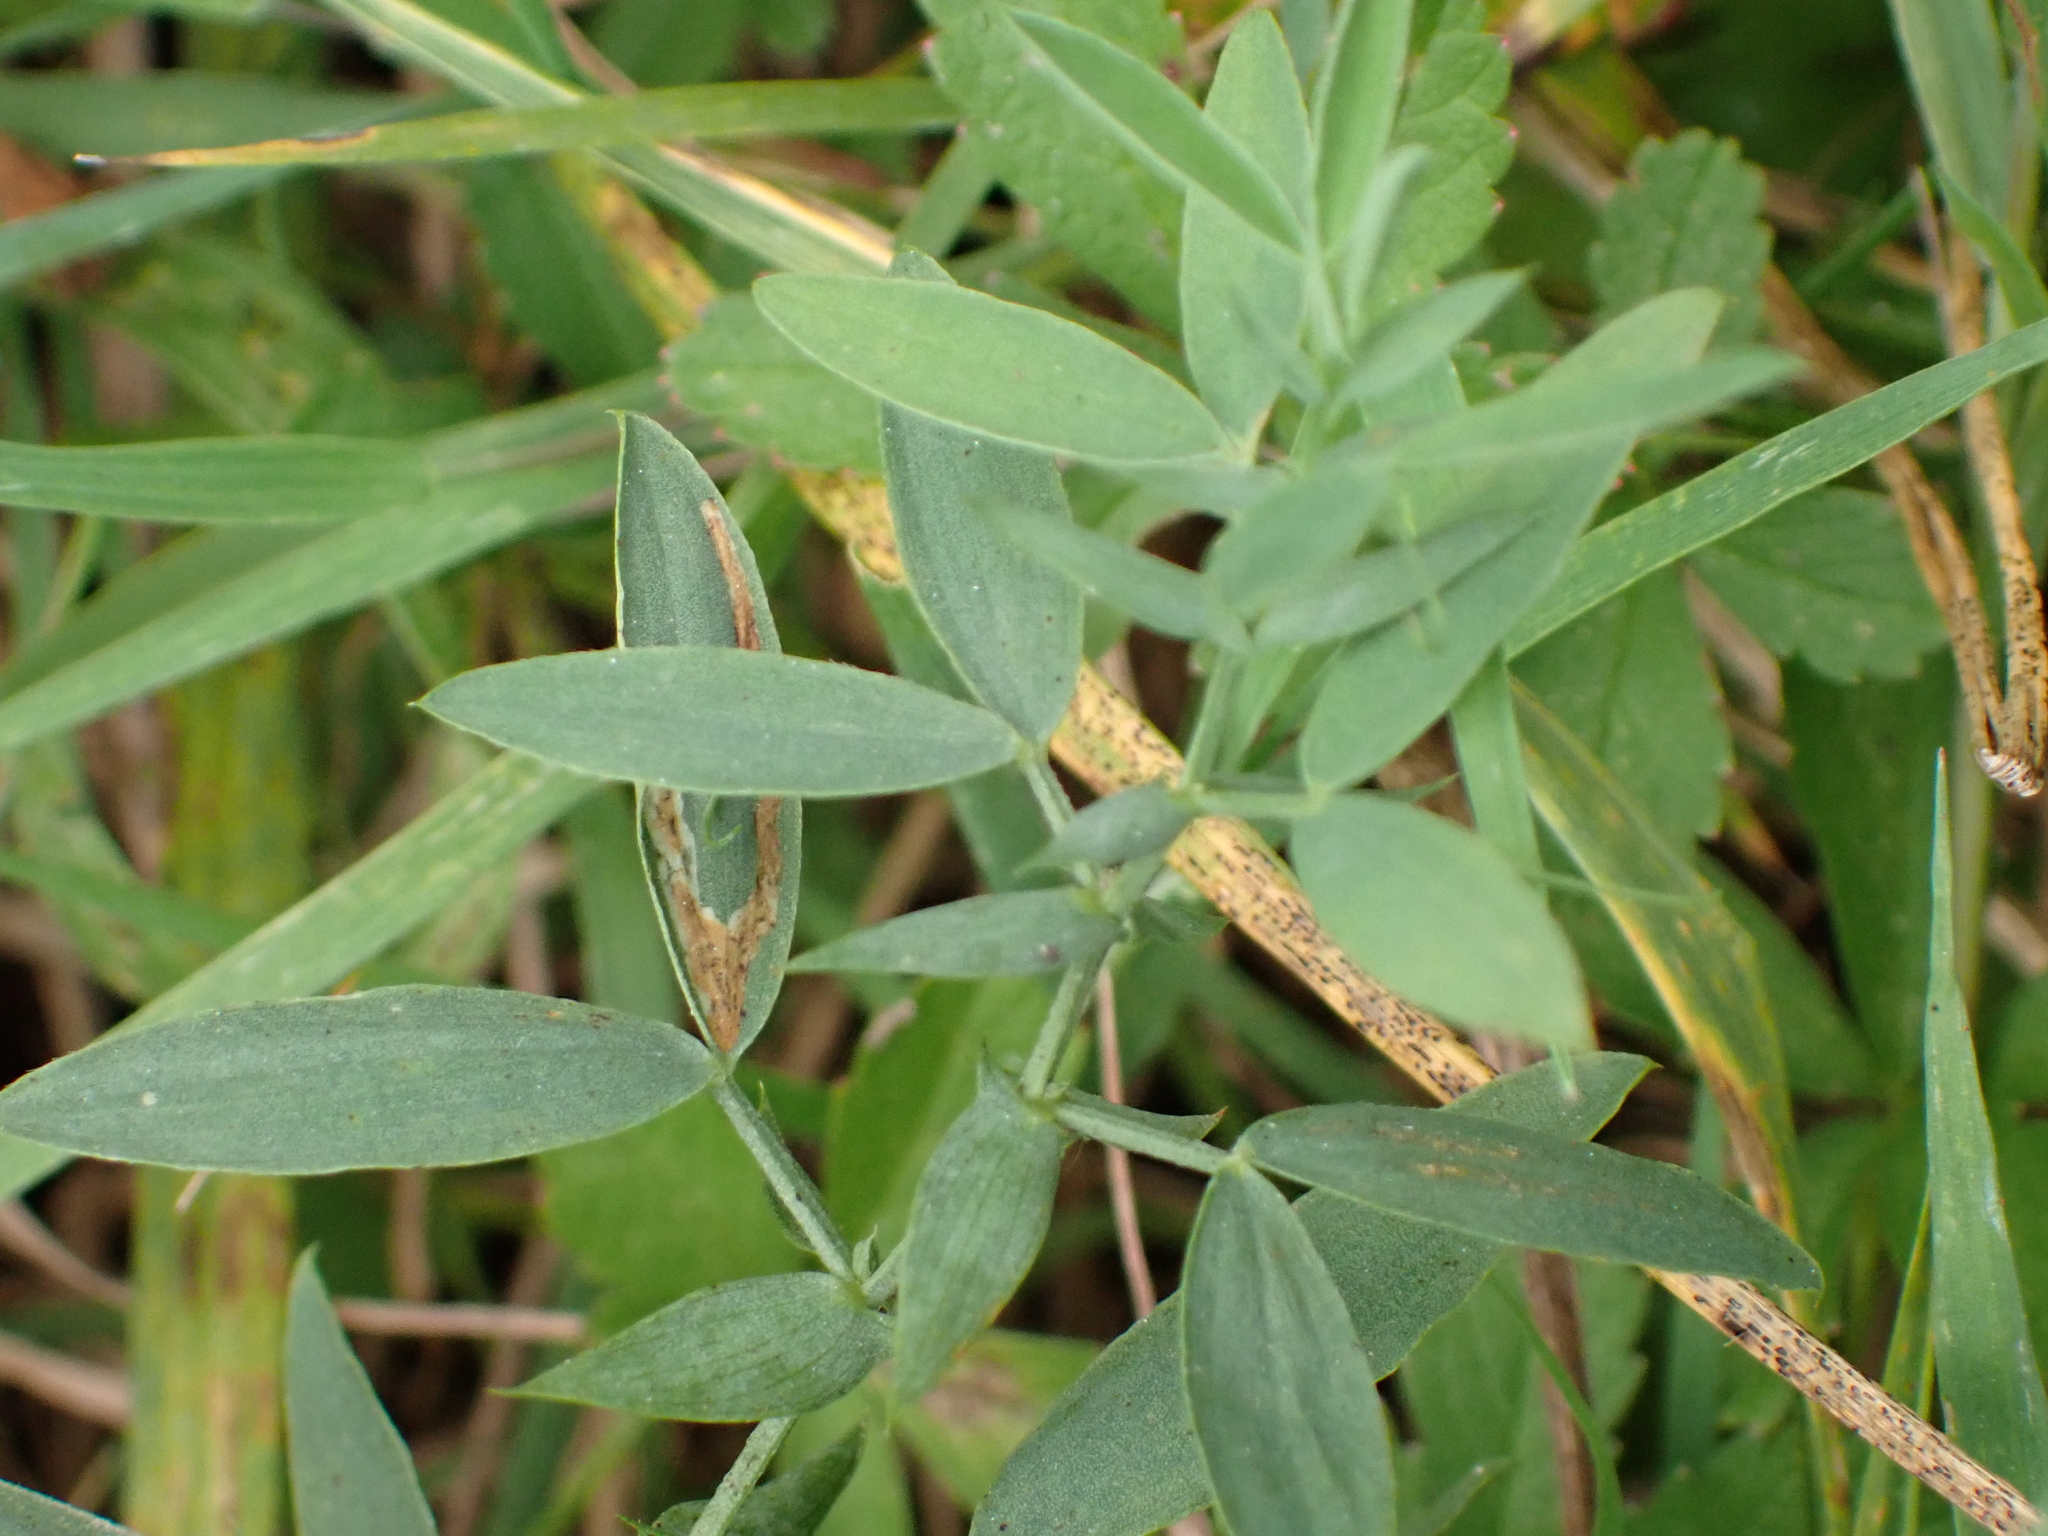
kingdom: Plantae
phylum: Tracheophyta
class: Magnoliopsida
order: Fabales
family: Fabaceae
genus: Lathyrus
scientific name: Lathyrus pratensis
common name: Meadow vetchling
